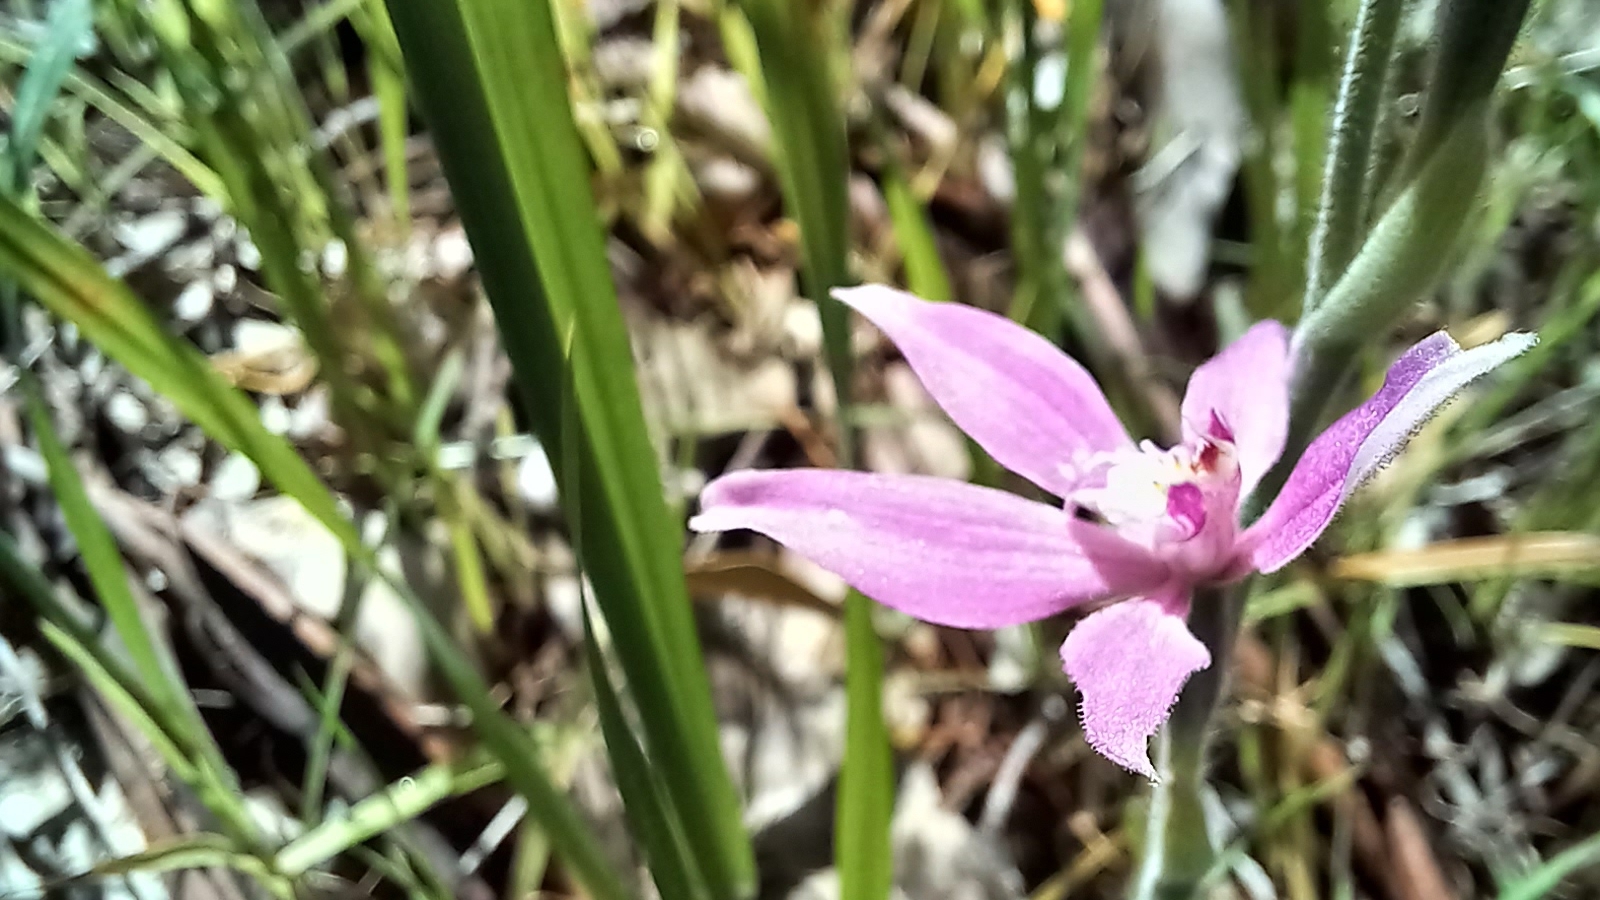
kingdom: Plantae
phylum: Tracheophyta
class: Liliopsida
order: Asparagales
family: Orchidaceae
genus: Caladenia
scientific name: Caladenia latifolia
